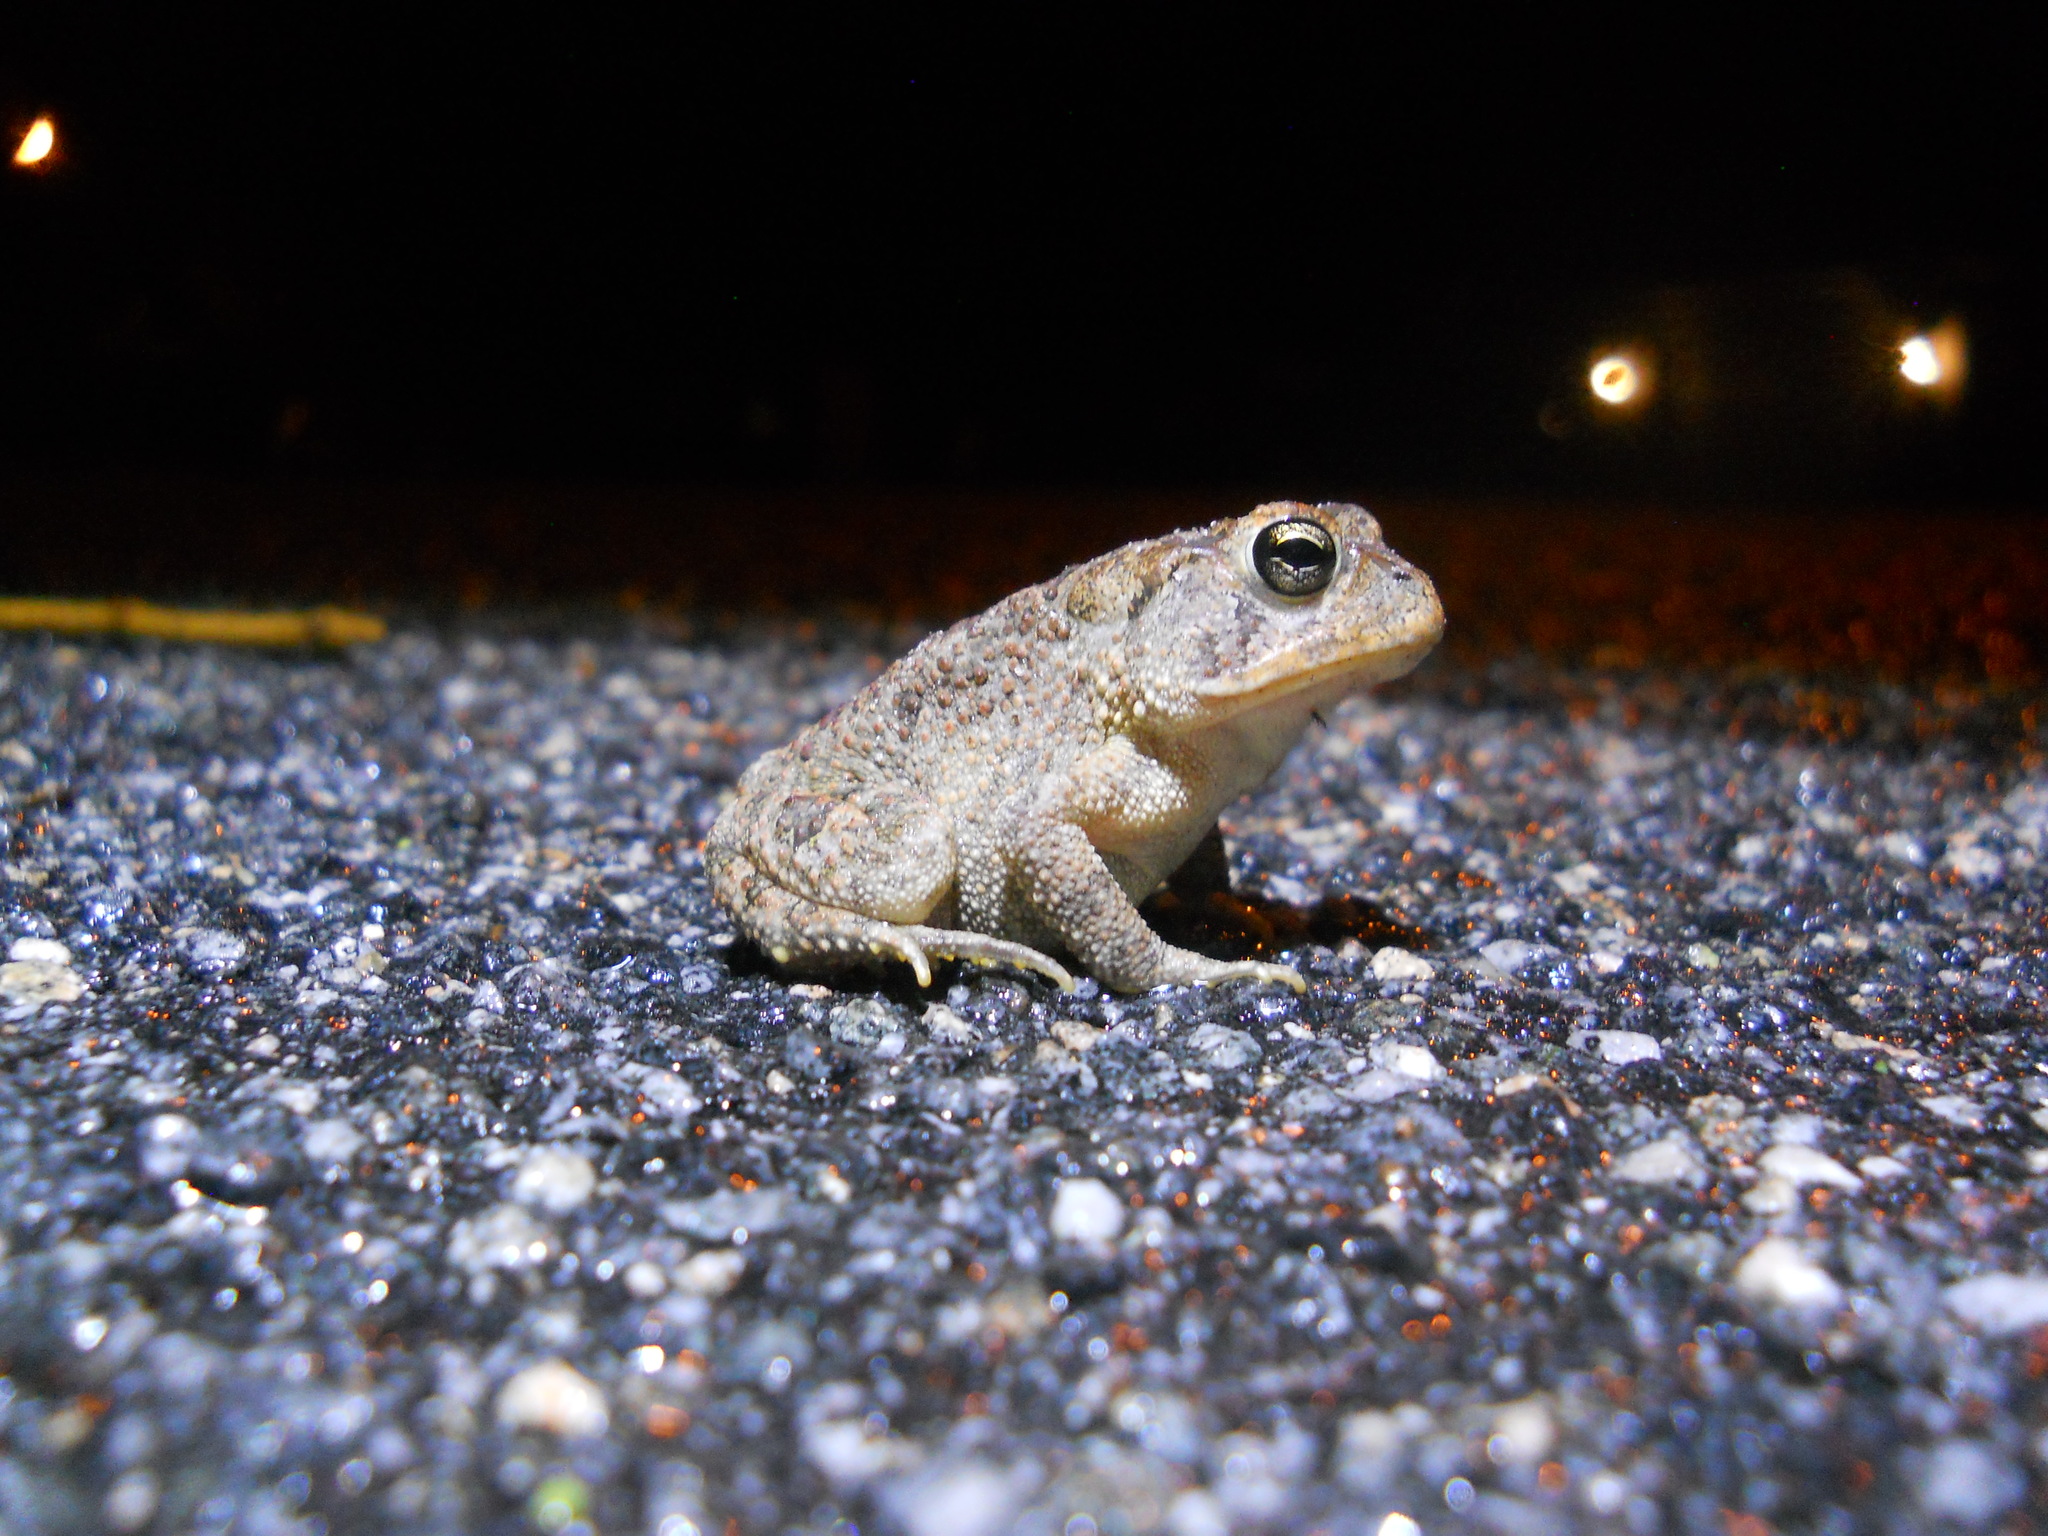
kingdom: Animalia
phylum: Chordata
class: Amphibia
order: Anura
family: Bufonidae
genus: Anaxyrus
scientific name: Anaxyrus terrestris
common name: Southern toad
